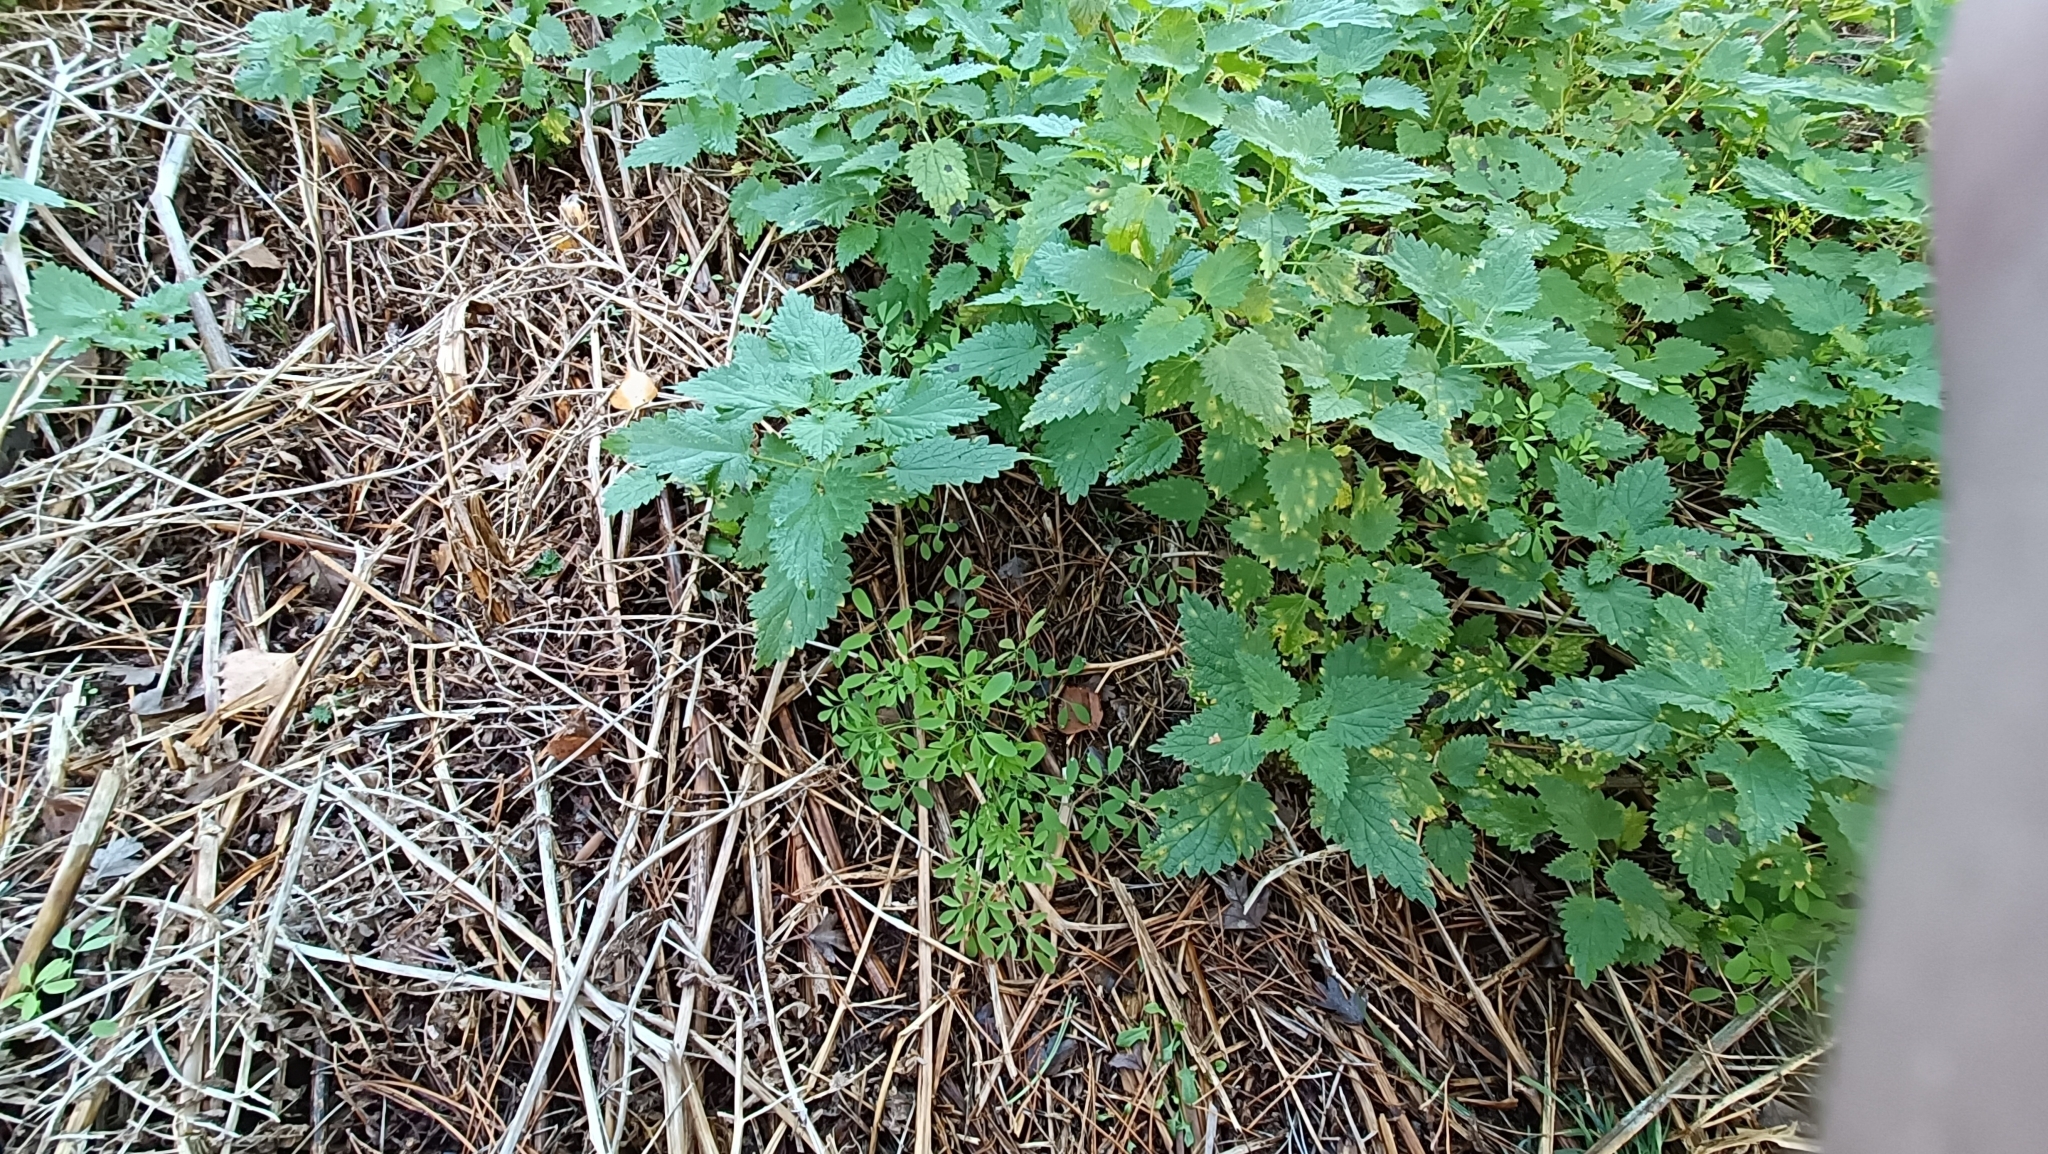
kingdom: Plantae
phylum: Tracheophyta
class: Magnoliopsida
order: Ranunculales
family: Papaveraceae
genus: Ceratocapnos
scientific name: Ceratocapnos claviculata
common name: Climbing corydalis
